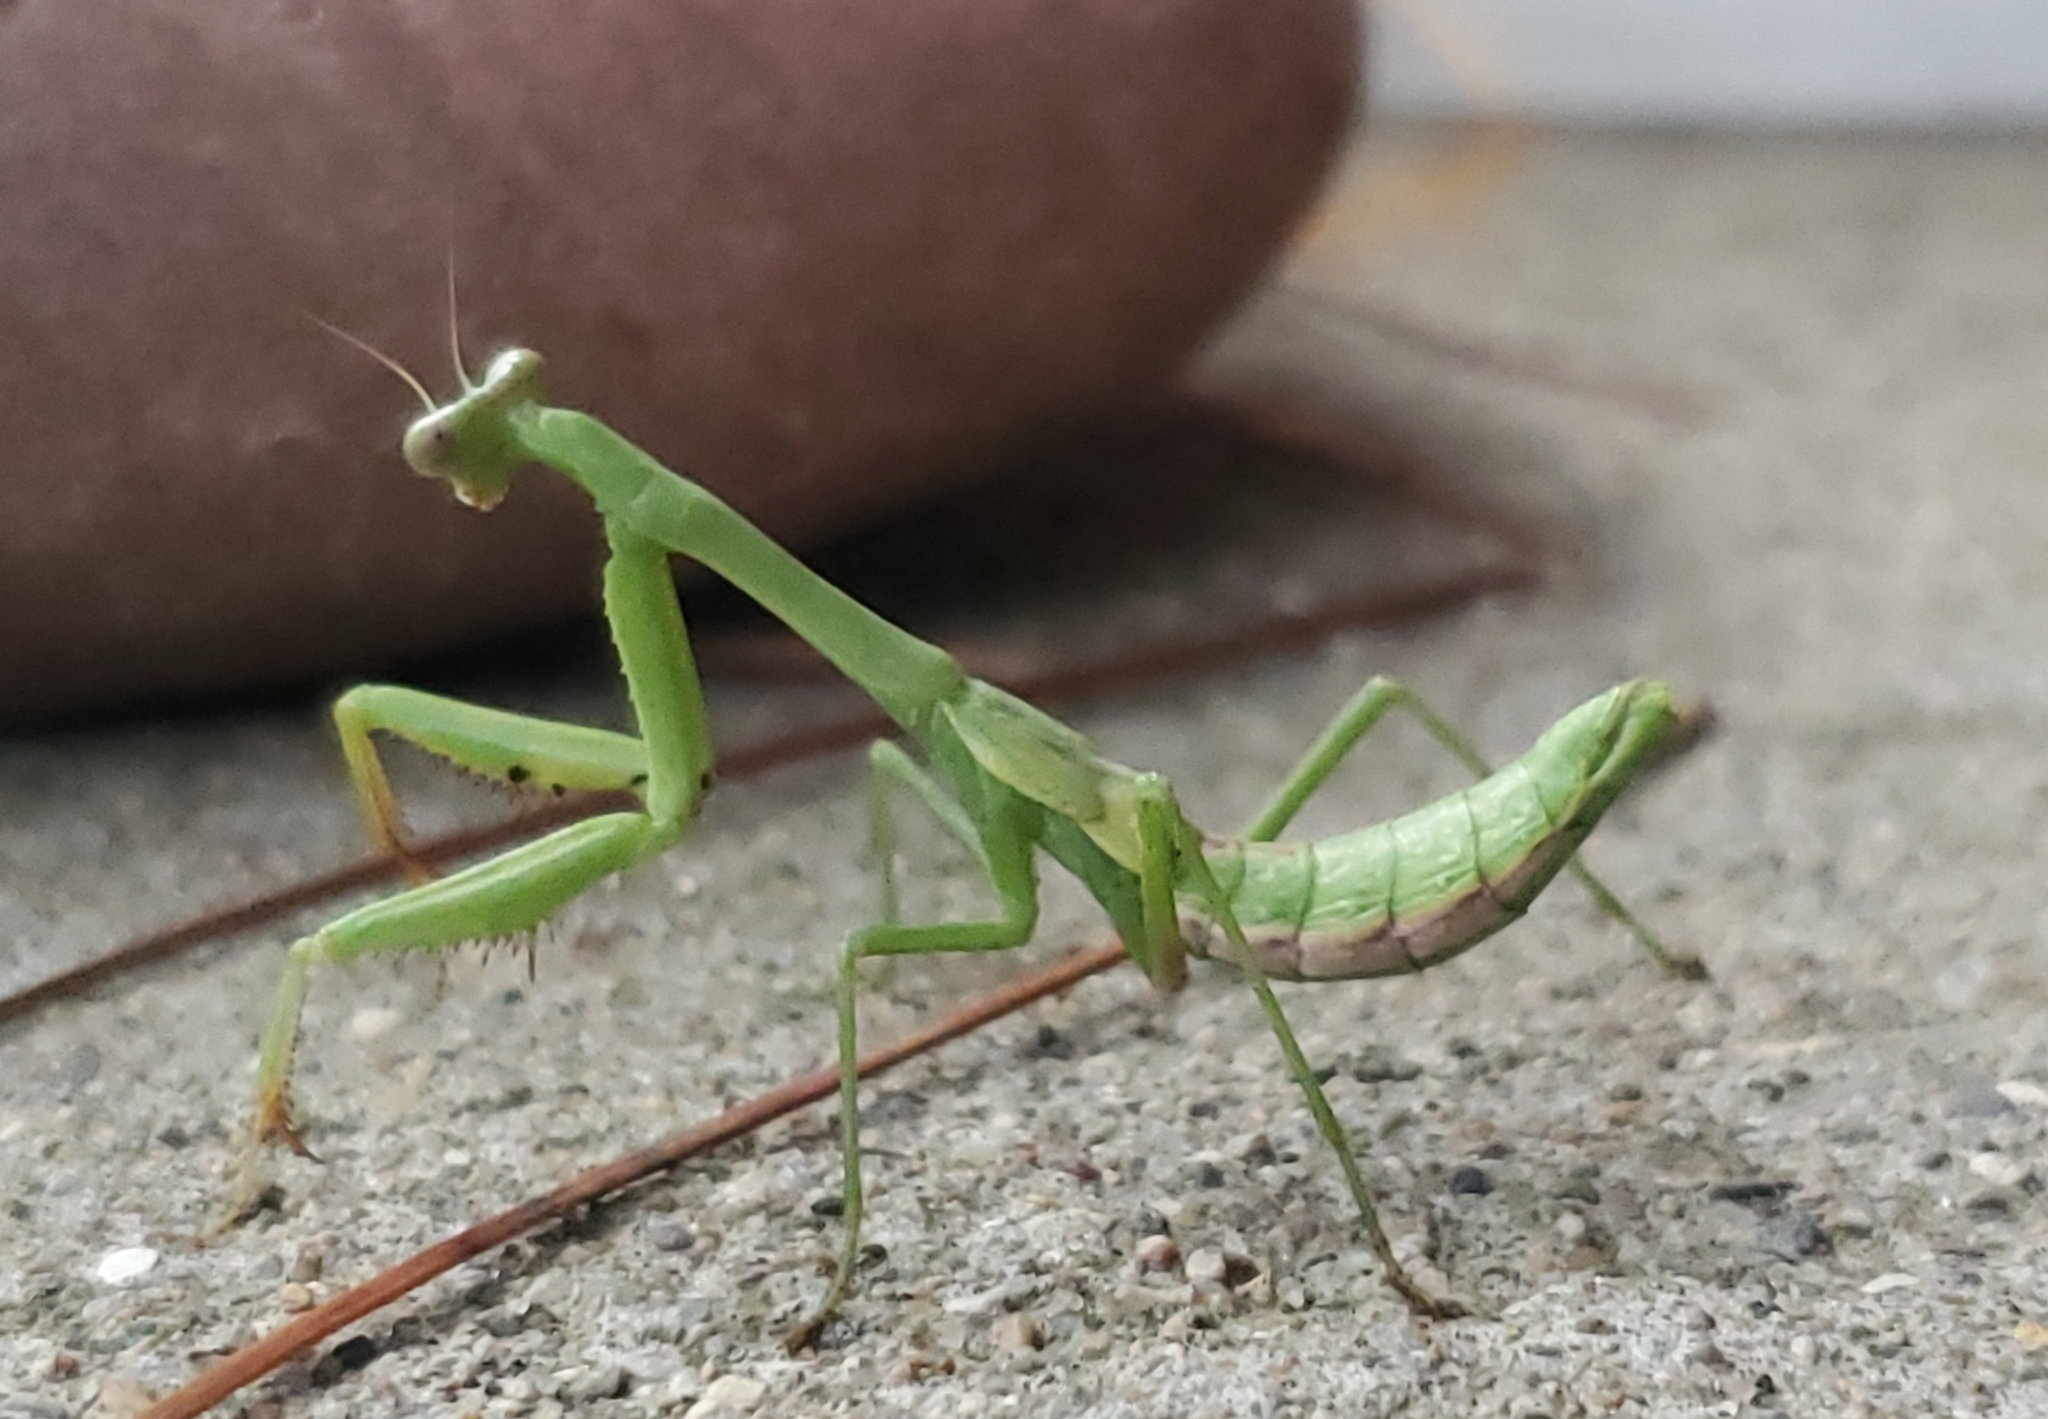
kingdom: Animalia
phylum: Arthropoda
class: Insecta
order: Mantodea
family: Mantidae
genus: Stagmomantis
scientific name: Stagmomantis carolina
